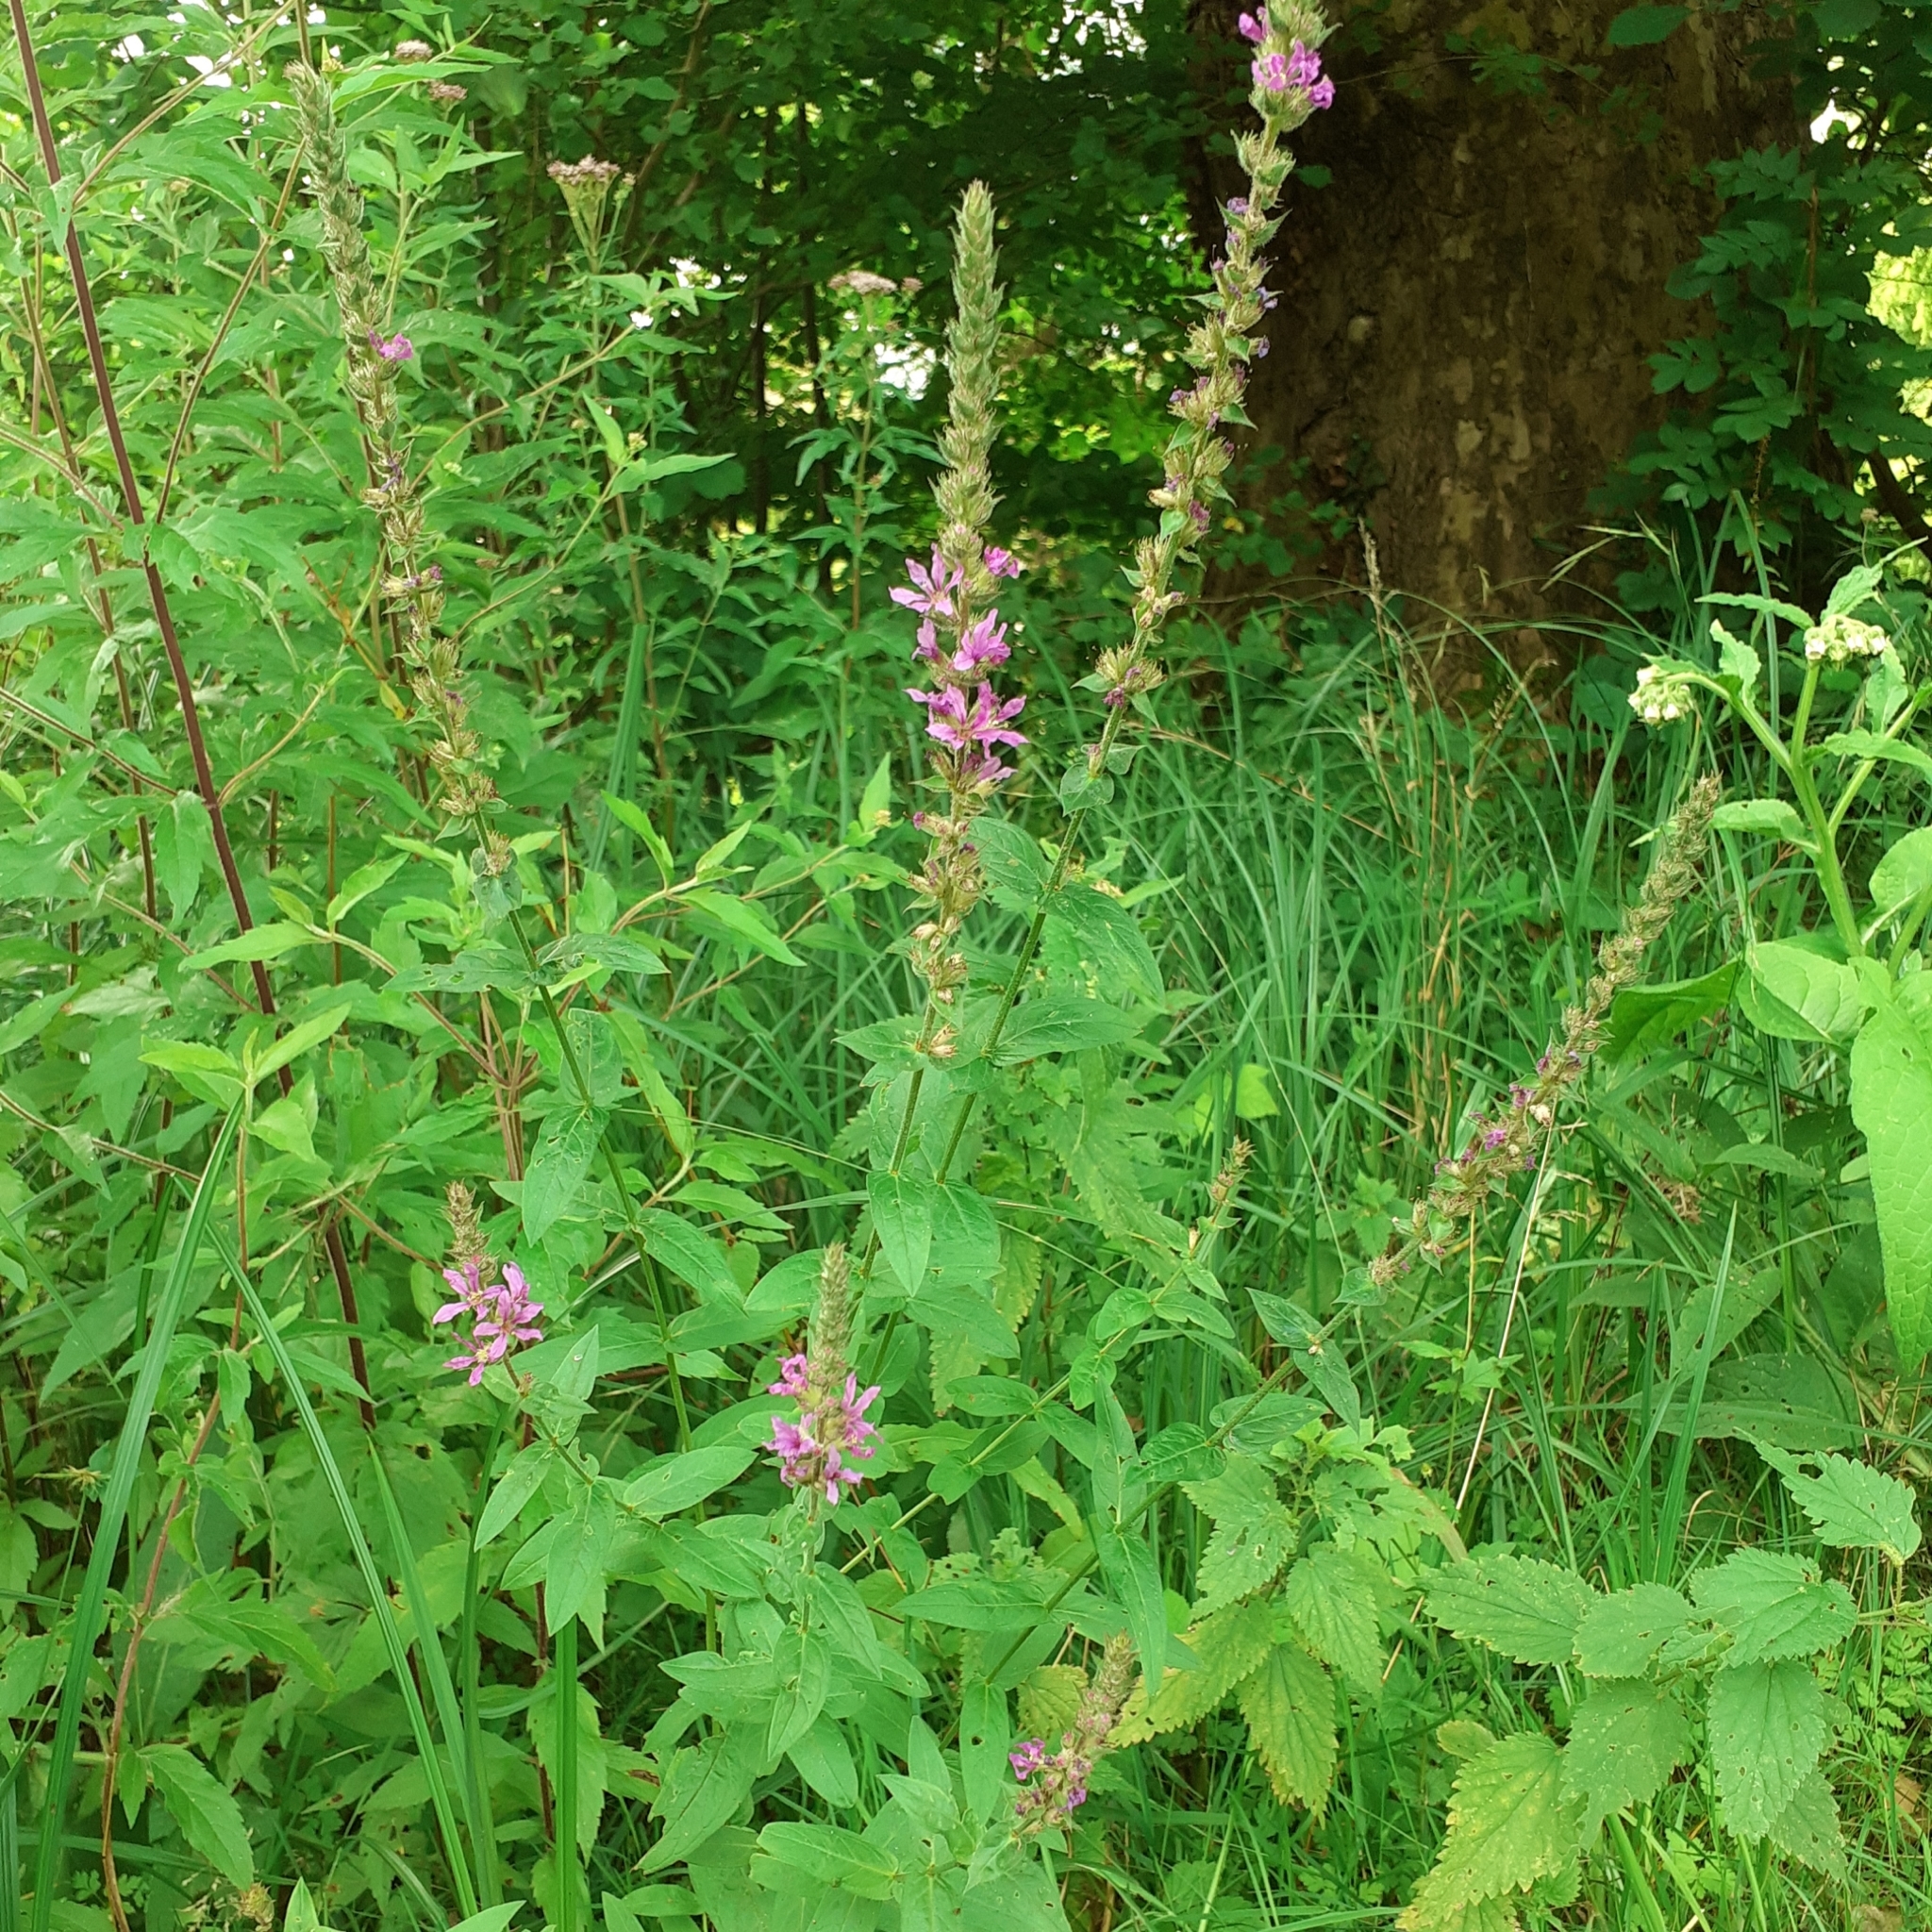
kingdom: Plantae
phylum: Tracheophyta
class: Magnoliopsida
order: Myrtales
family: Lythraceae
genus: Lythrum
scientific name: Lythrum salicaria
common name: Purple loosestrife
